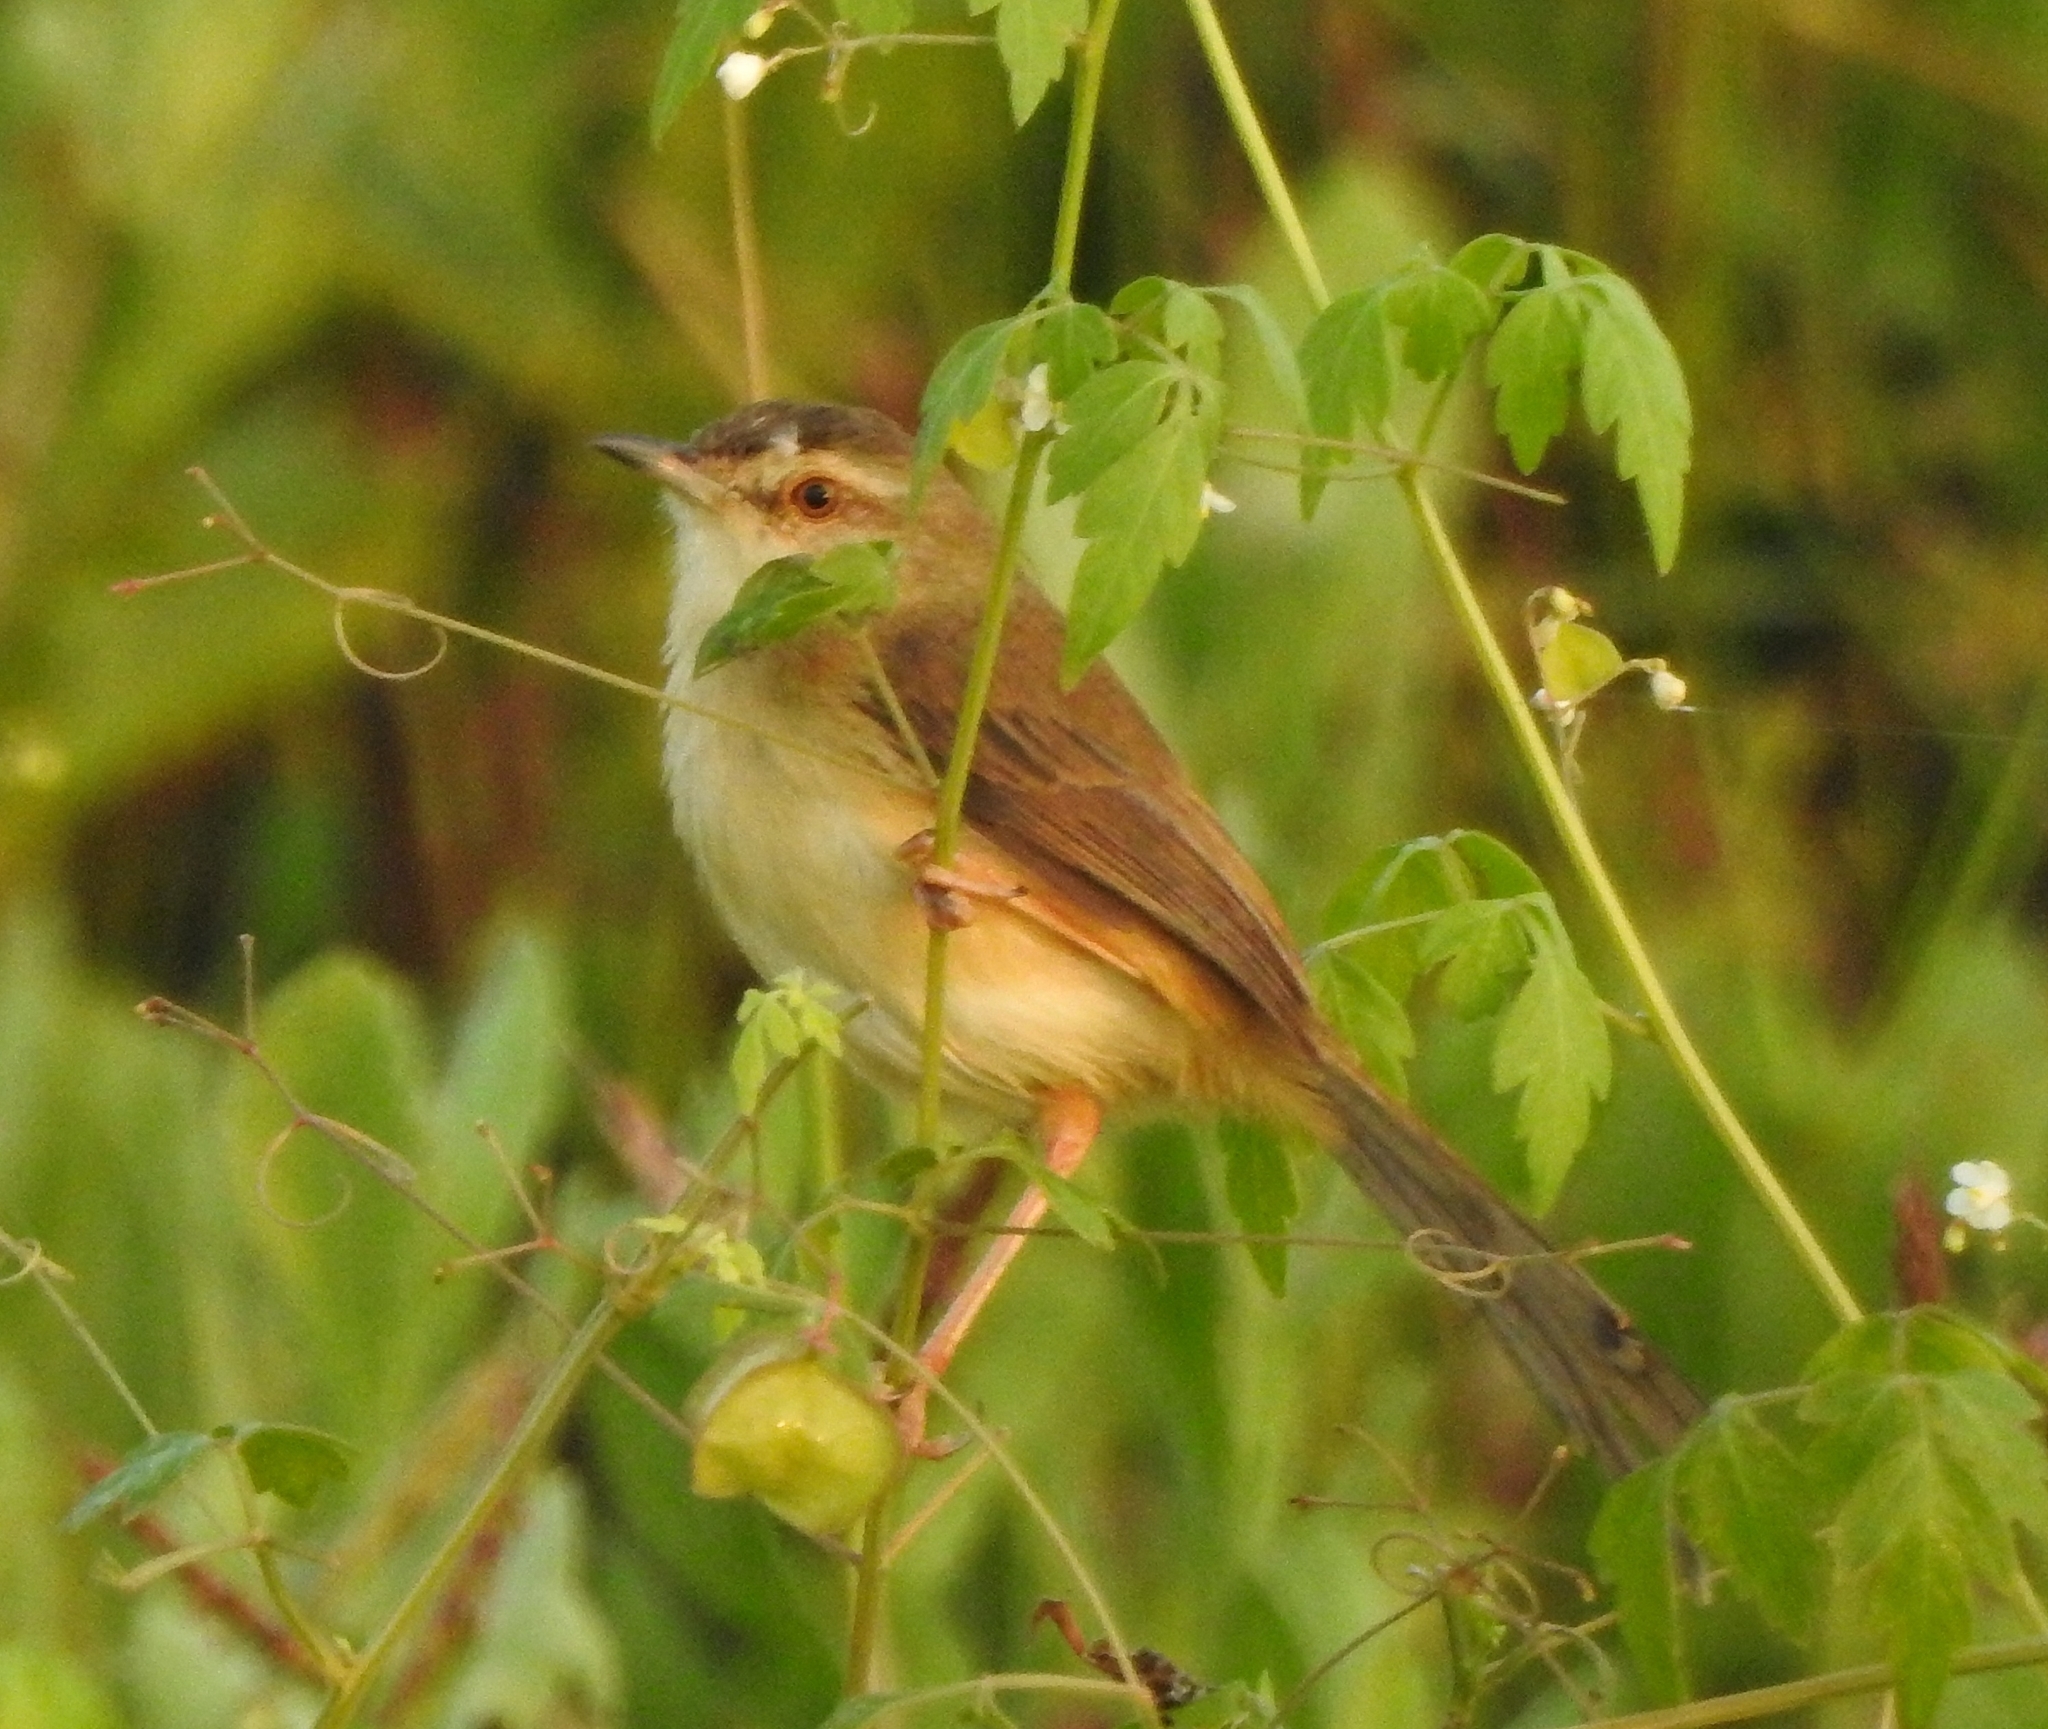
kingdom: Animalia
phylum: Chordata
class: Aves
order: Passeriformes
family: Cisticolidae
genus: Prinia
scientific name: Prinia inornata
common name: Plain prinia
